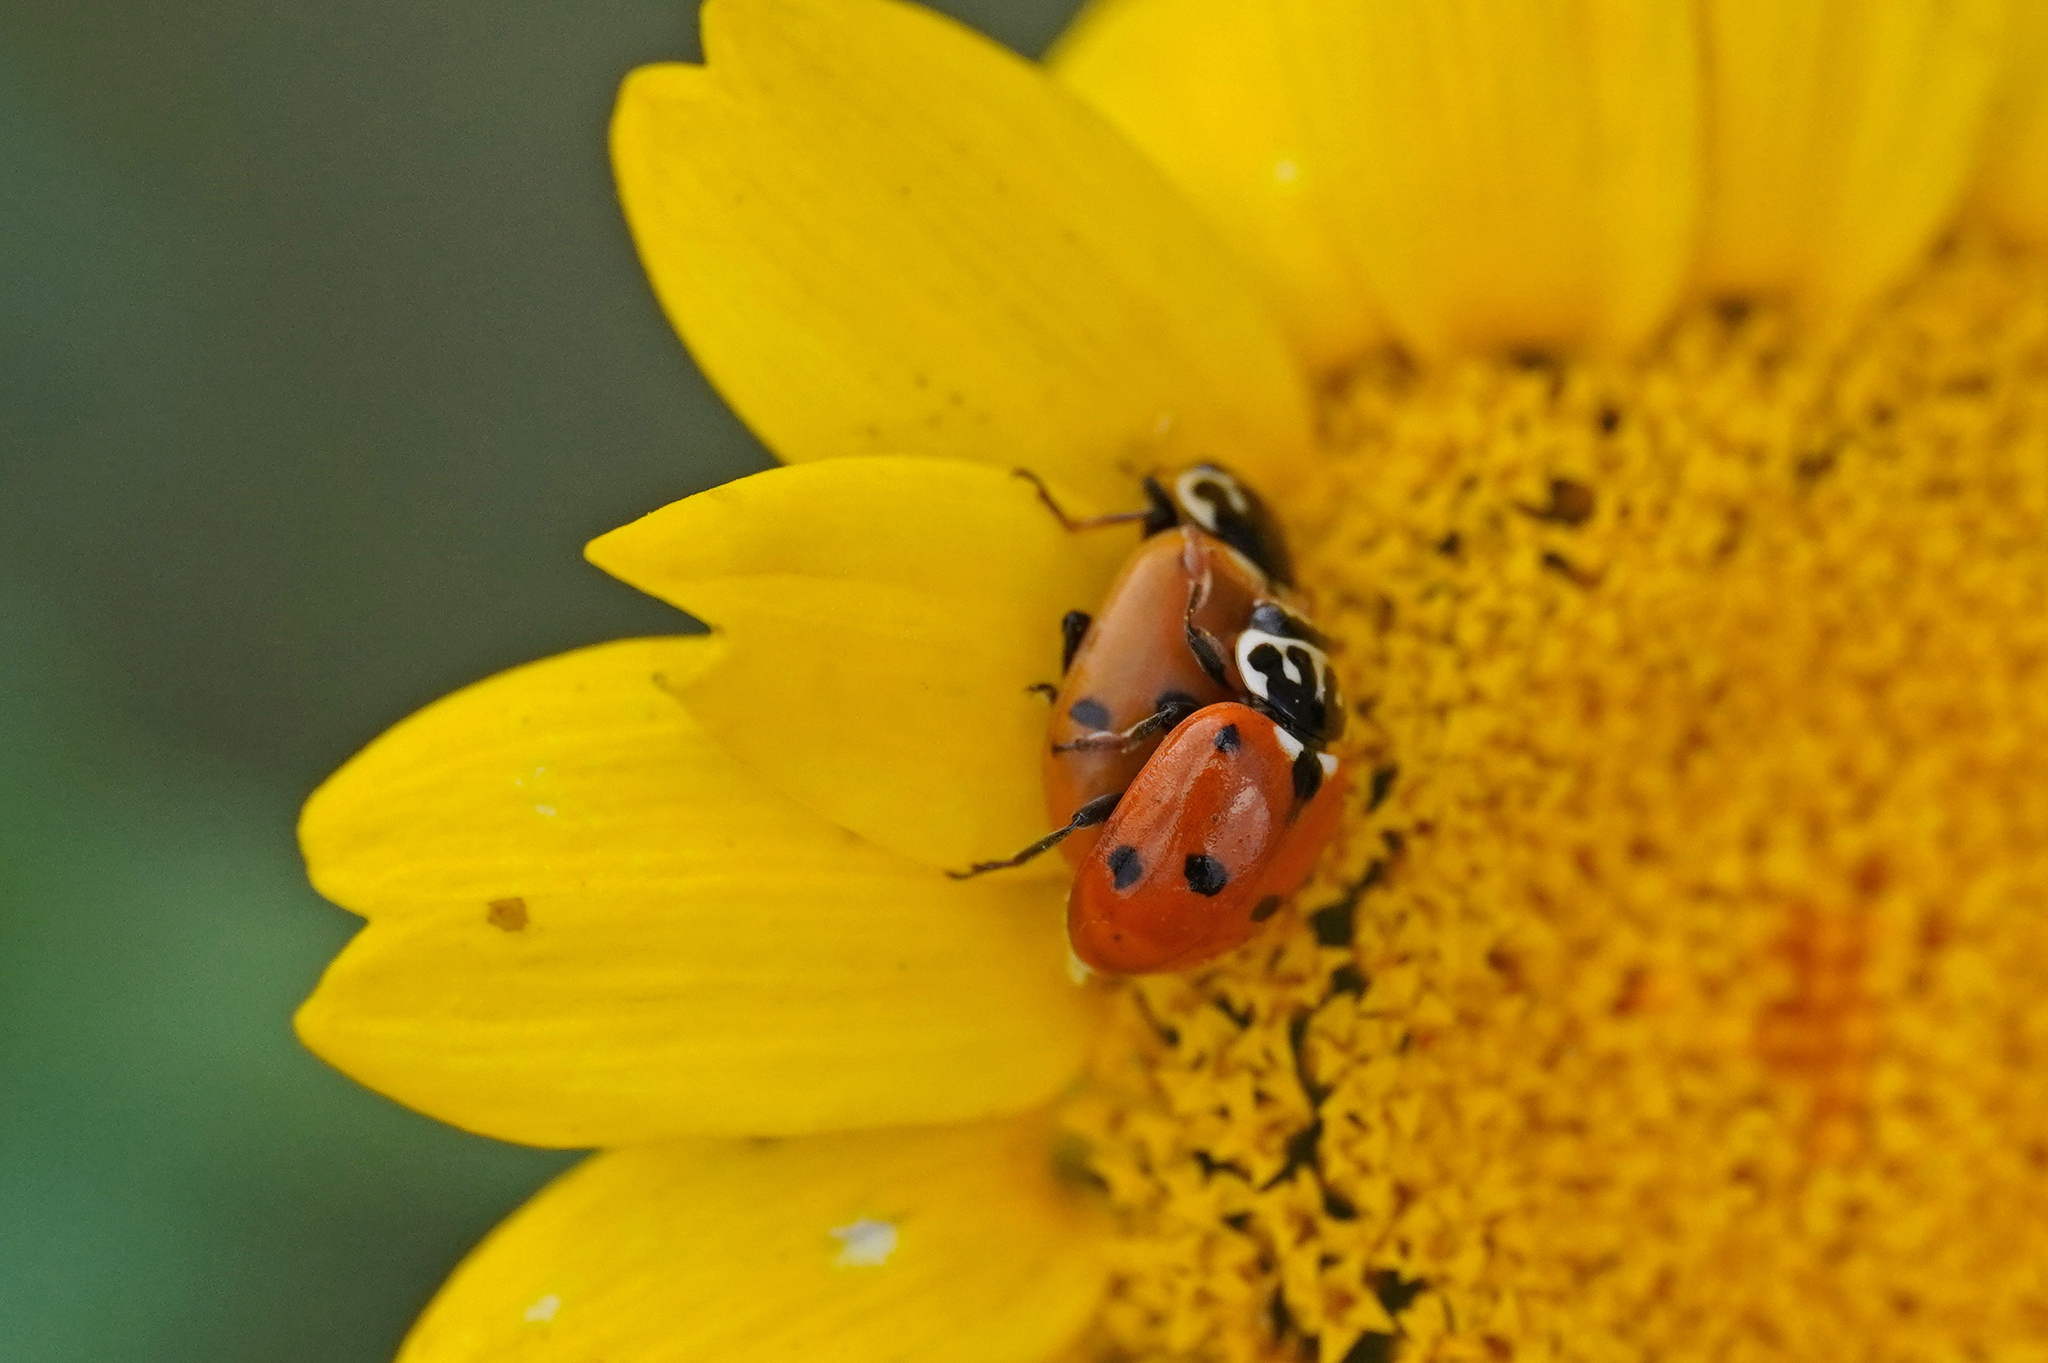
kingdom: Animalia
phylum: Arthropoda
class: Insecta
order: Coleoptera
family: Coccinellidae
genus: Hippodamia
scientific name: Hippodamia variegata
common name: Ladybird beetle
